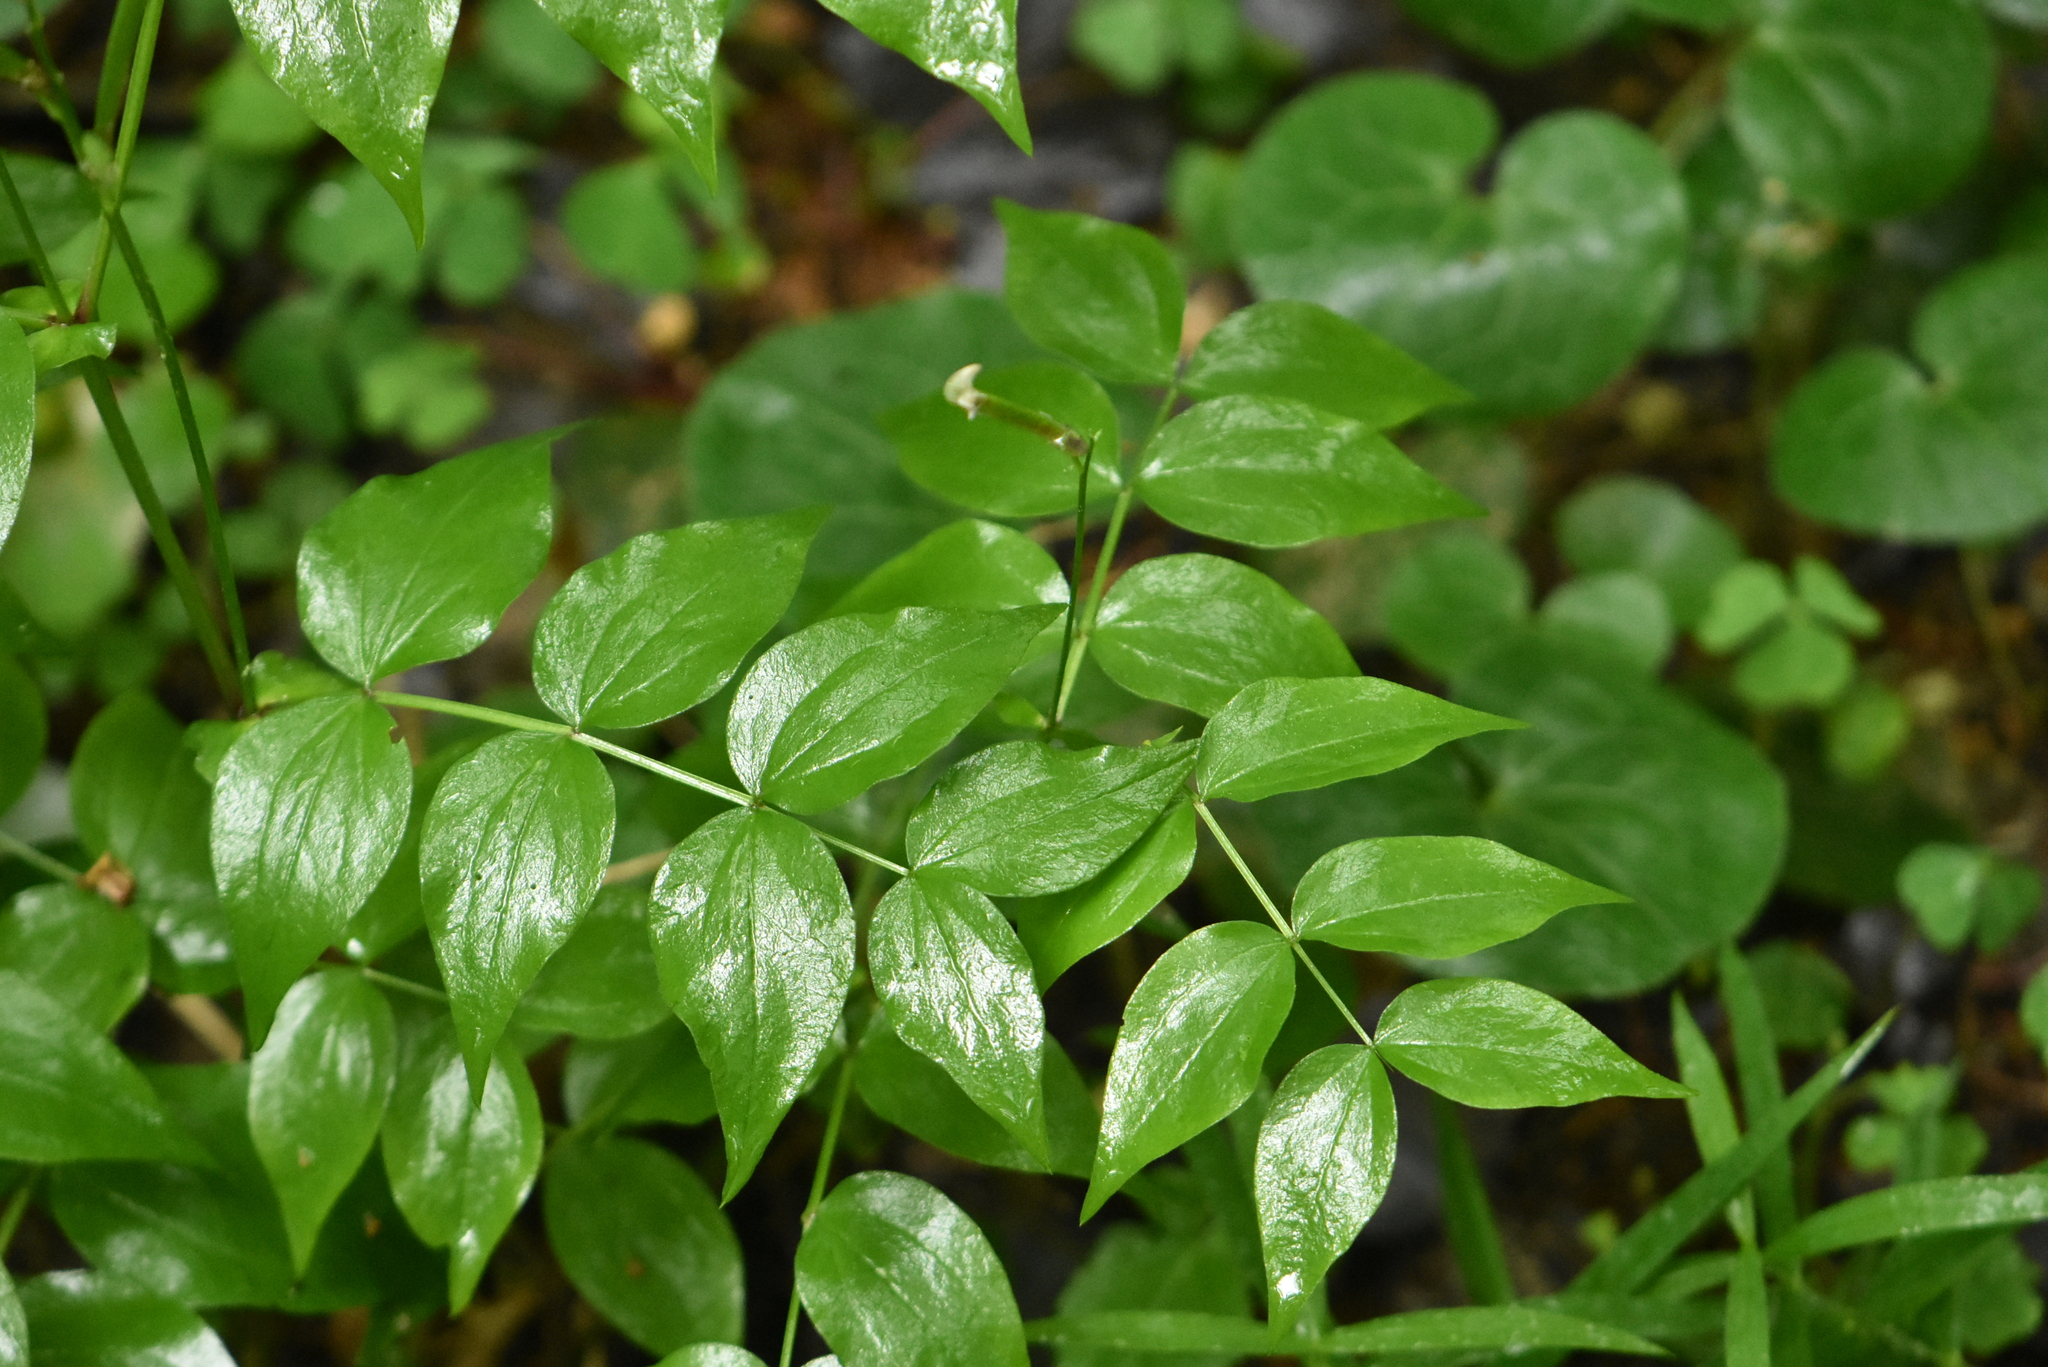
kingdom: Plantae
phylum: Tracheophyta
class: Magnoliopsida
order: Fabales
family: Fabaceae
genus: Lathyrus
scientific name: Lathyrus vernus
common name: Spring pea
